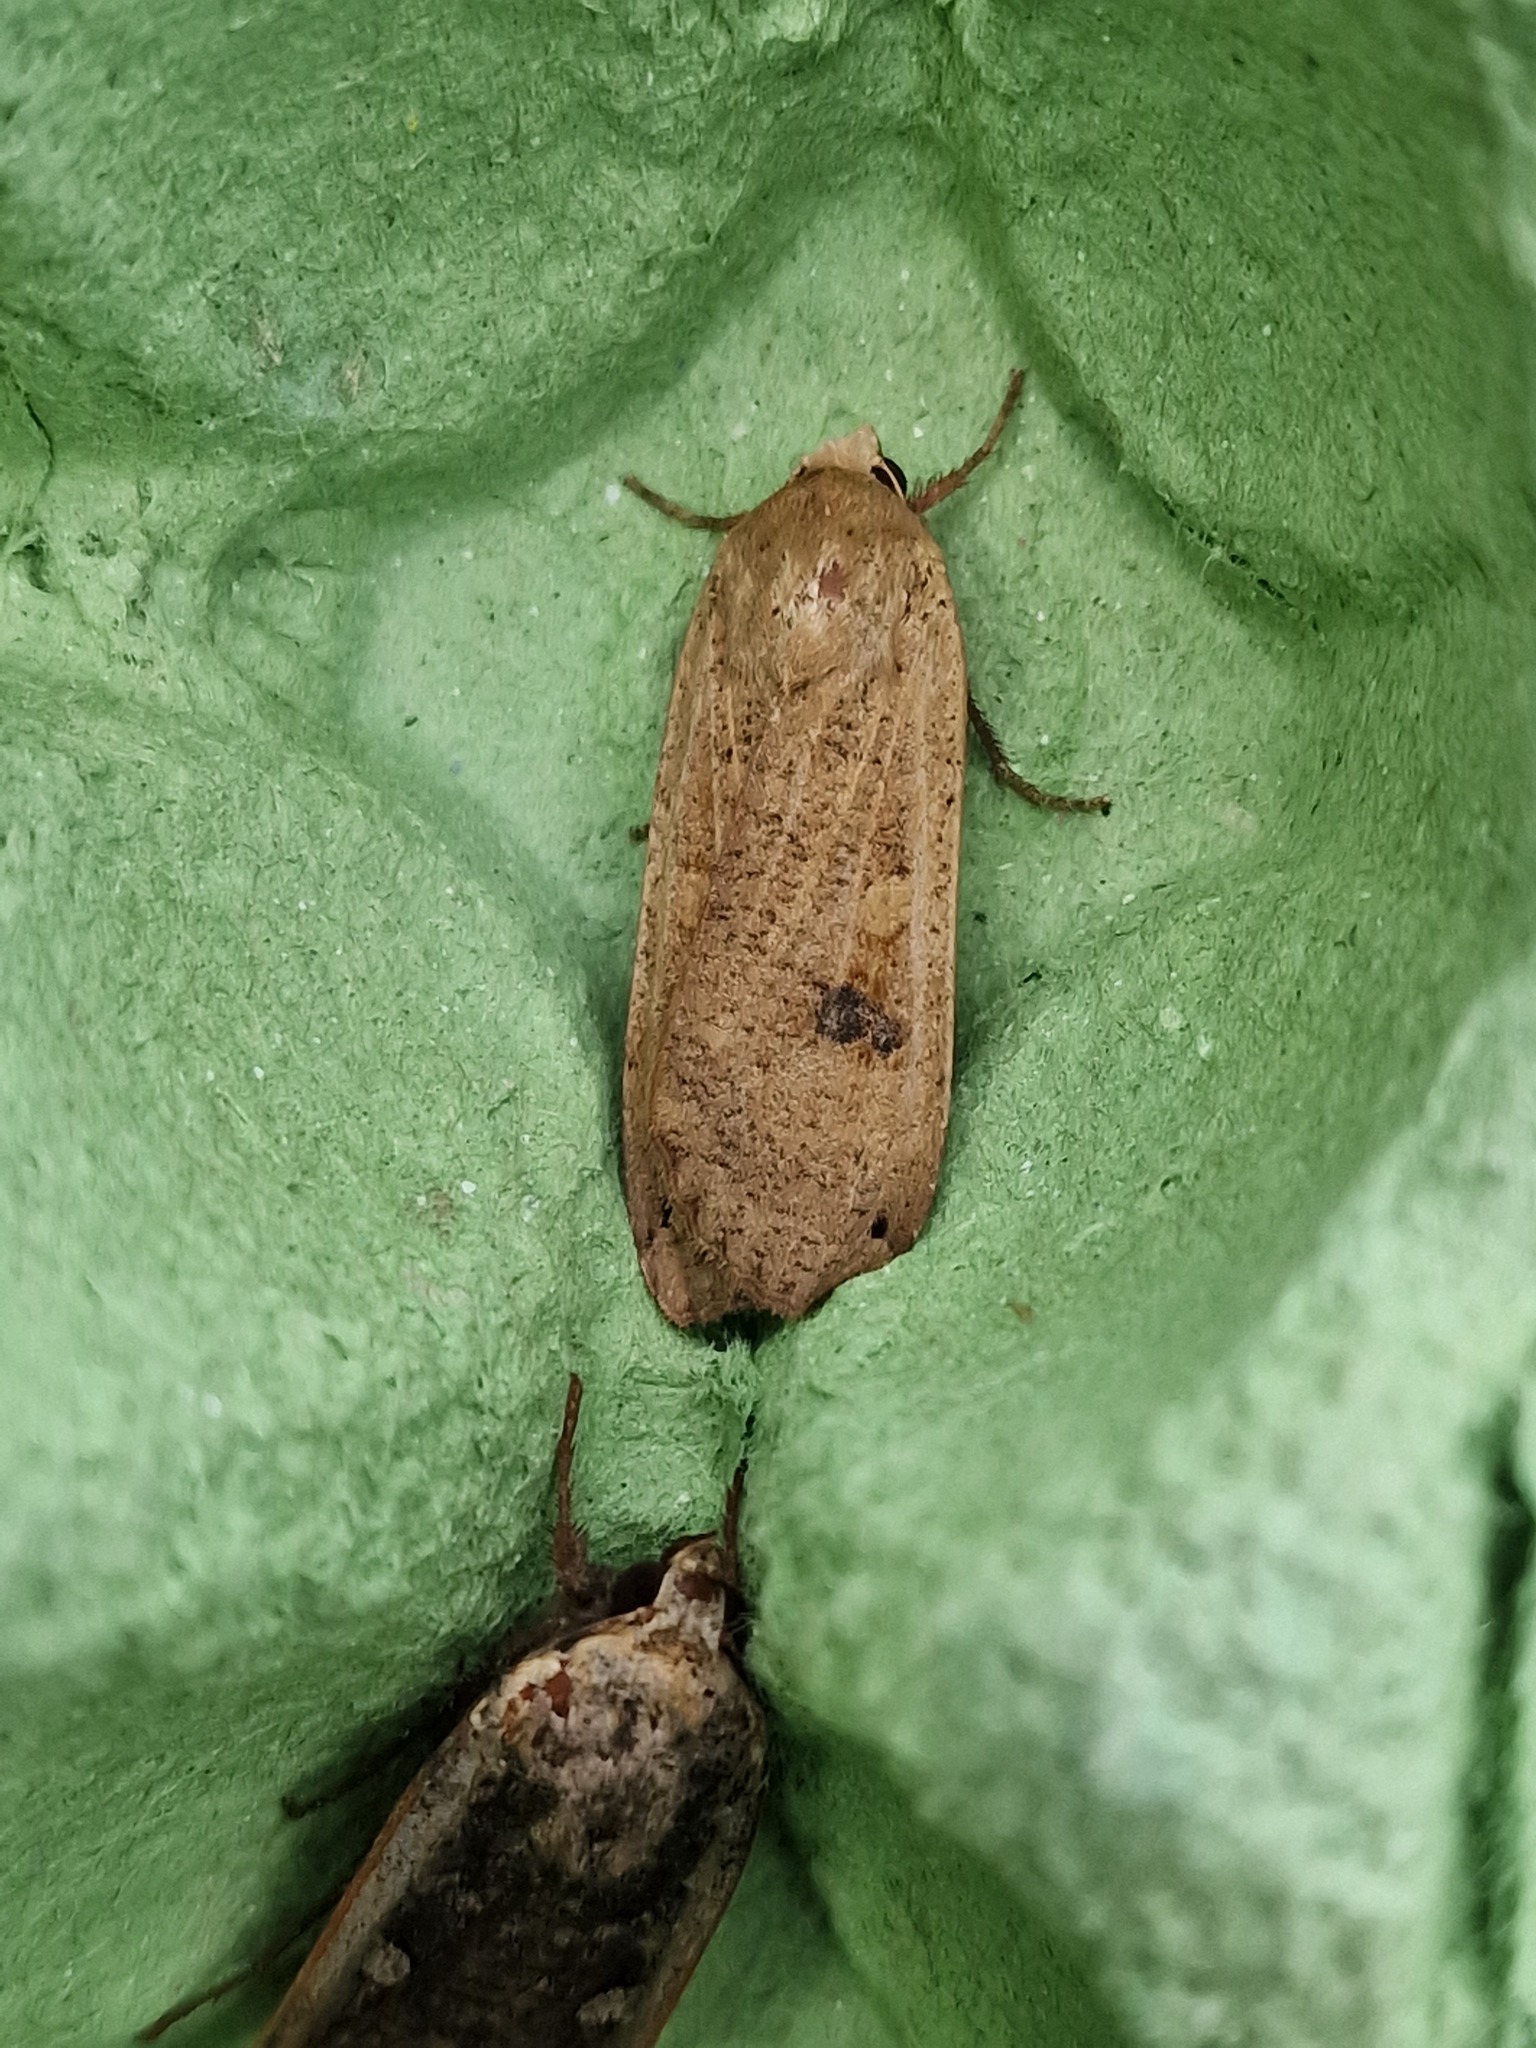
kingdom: Animalia
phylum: Arthropoda
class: Insecta
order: Lepidoptera
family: Noctuidae
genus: Noctua
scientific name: Noctua pronuba
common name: Large yellow underwing
